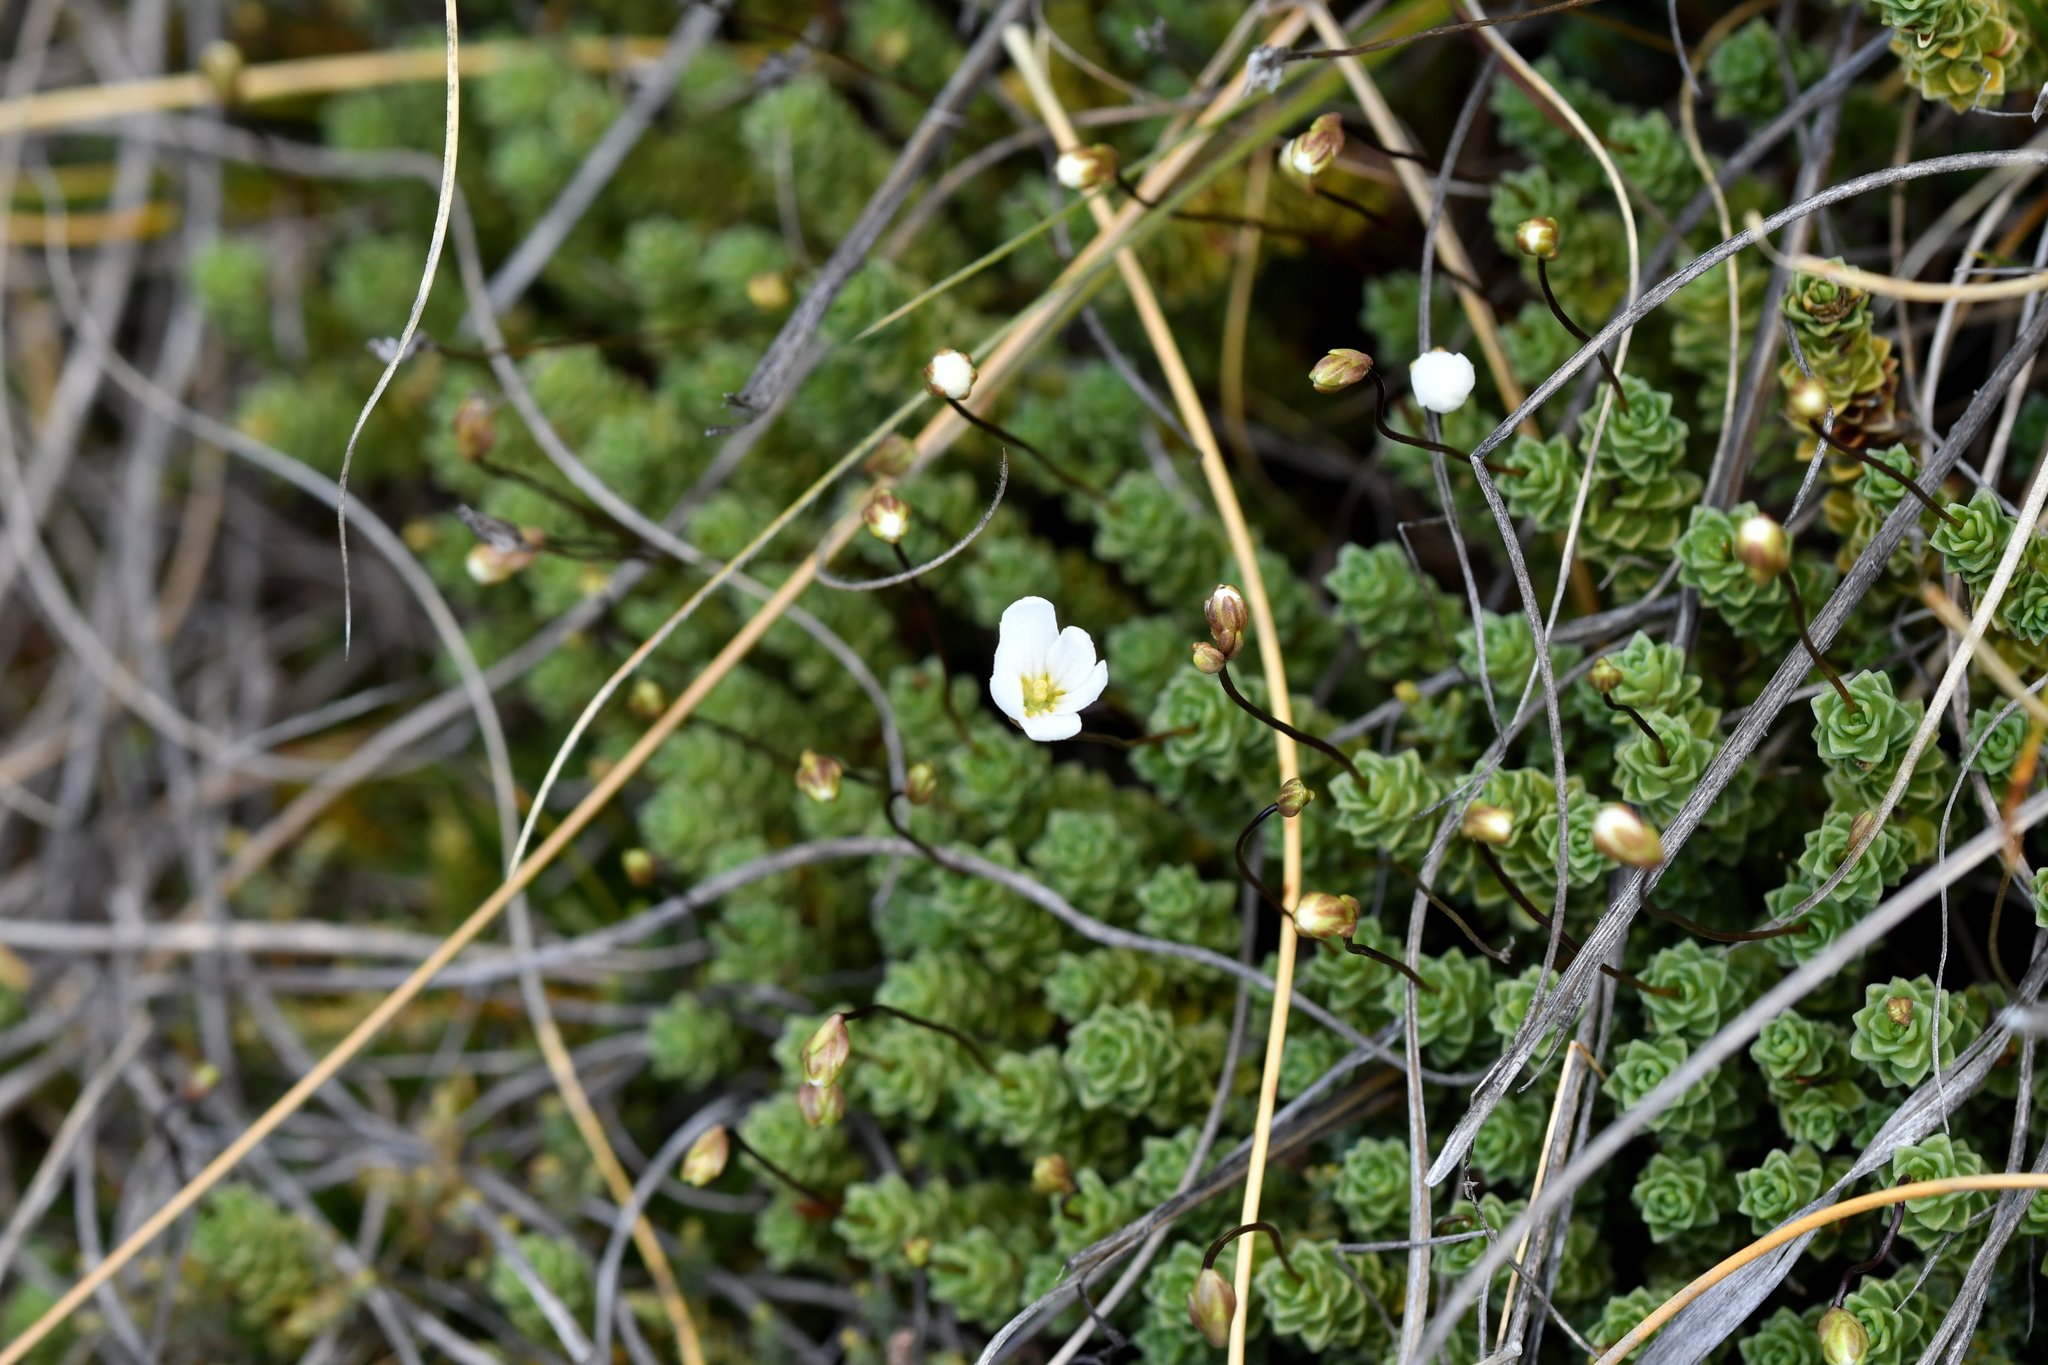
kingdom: Plantae
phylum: Tracheophyta
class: Magnoliopsida
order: Asterales
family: Stylidiaceae
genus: Forstera
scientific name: Forstera sedifolia
